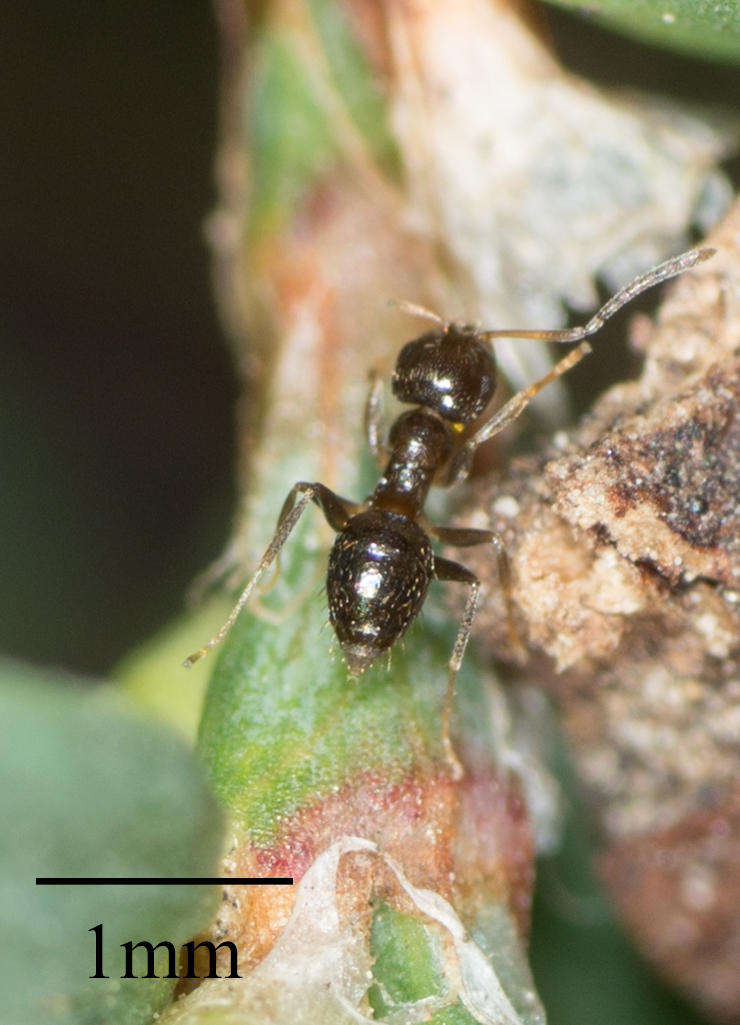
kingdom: Animalia
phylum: Arthropoda
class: Insecta
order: Hymenoptera
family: Formicidae
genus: Brachymyrmex
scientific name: Brachymyrmex patagonicus
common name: Dark rover ant
